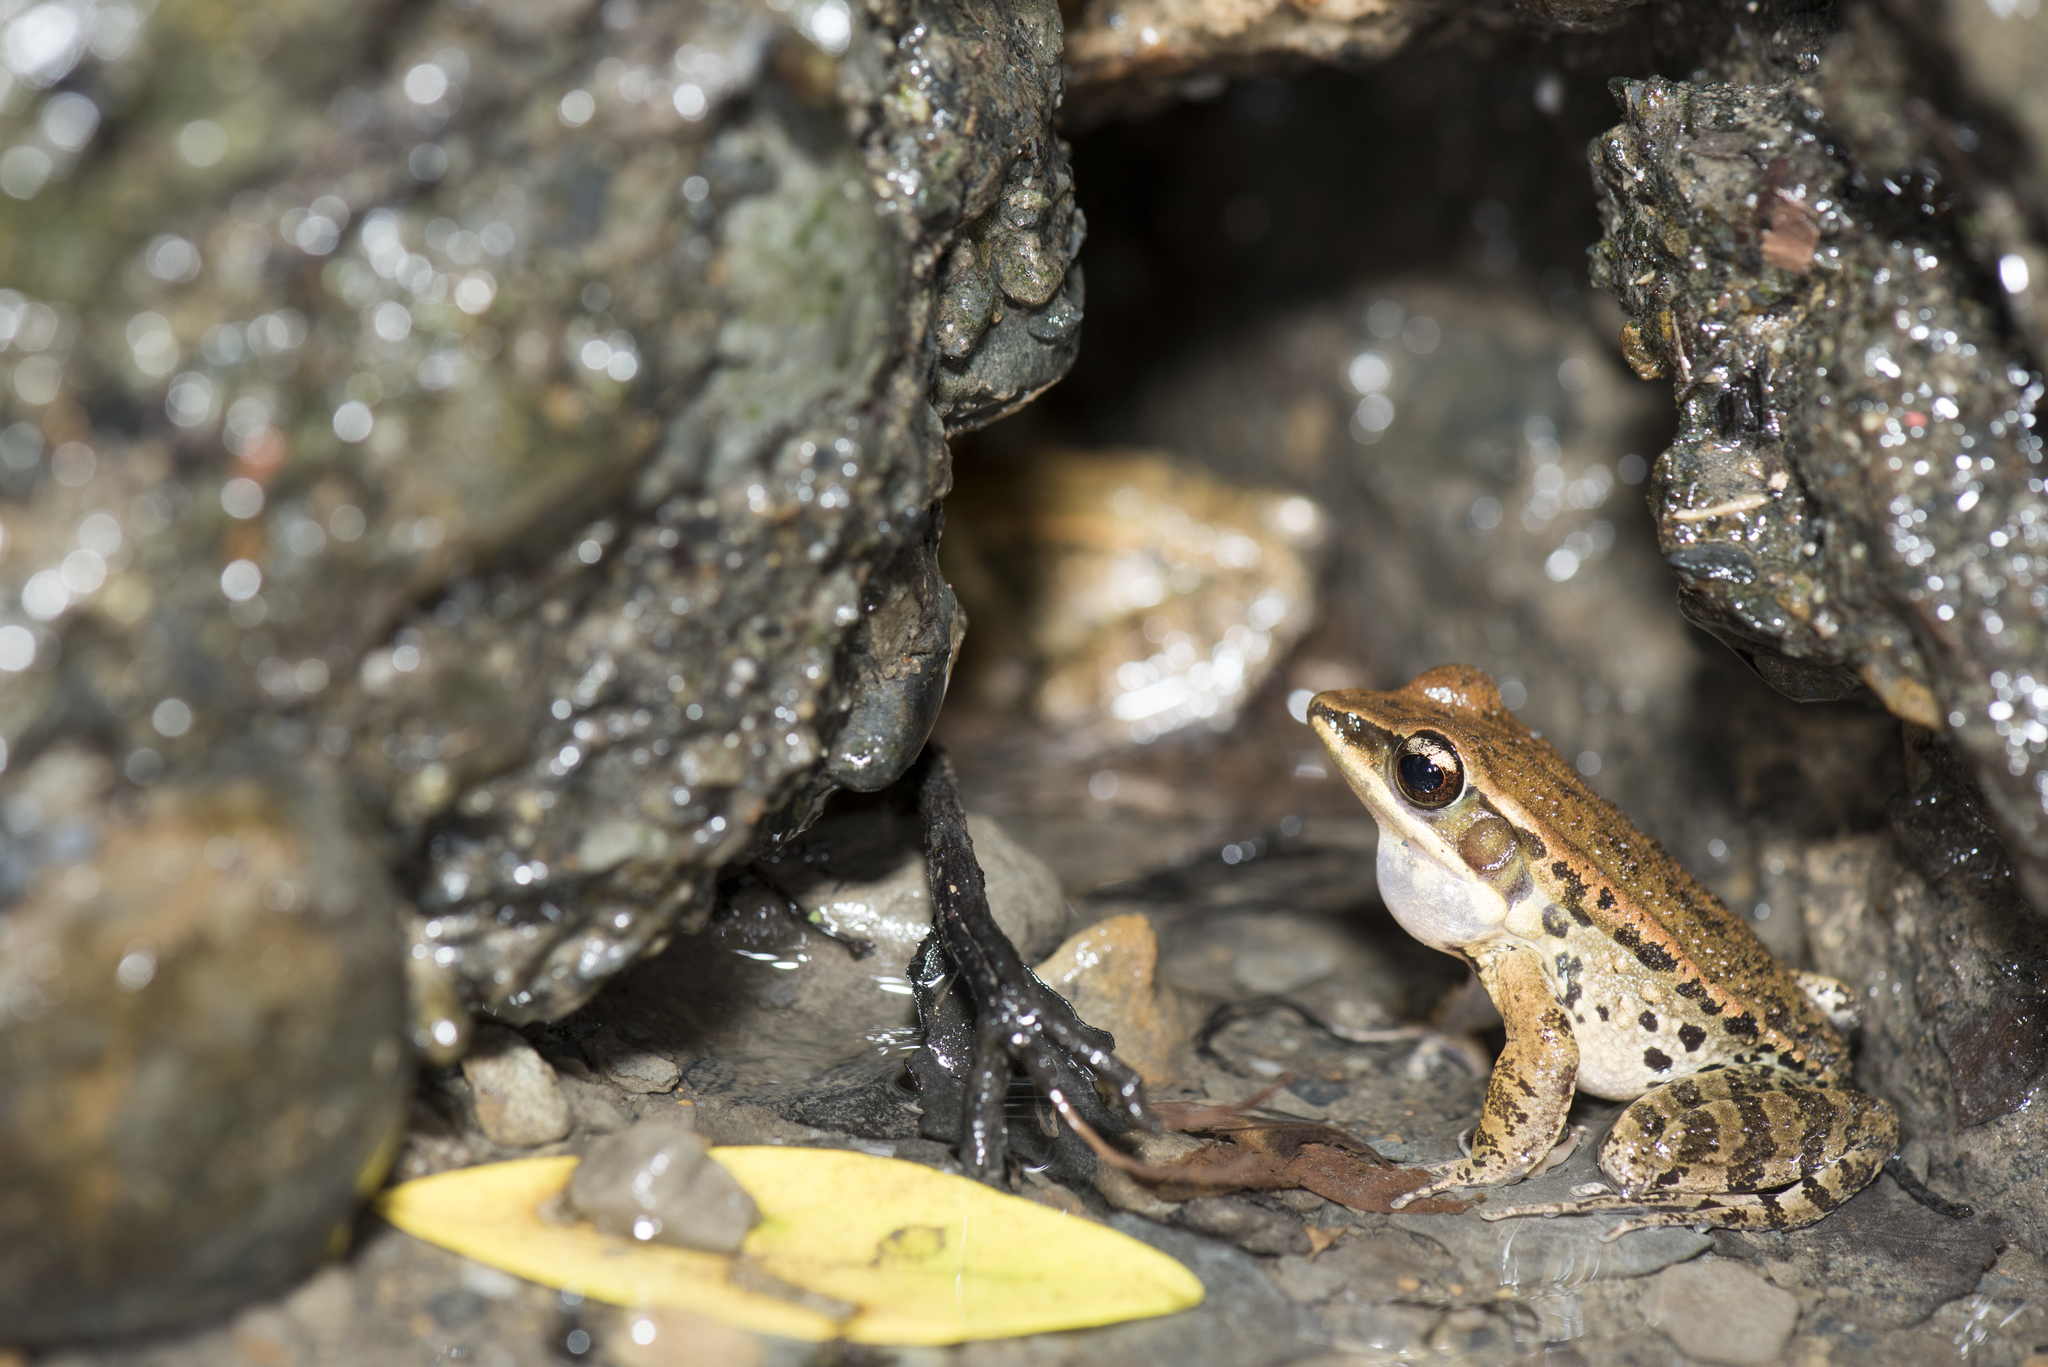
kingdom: Animalia
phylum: Chordata
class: Amphibia
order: Anura
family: Ranidae
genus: Hylarana
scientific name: Hylarana latouchii
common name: Broad-folded frog
